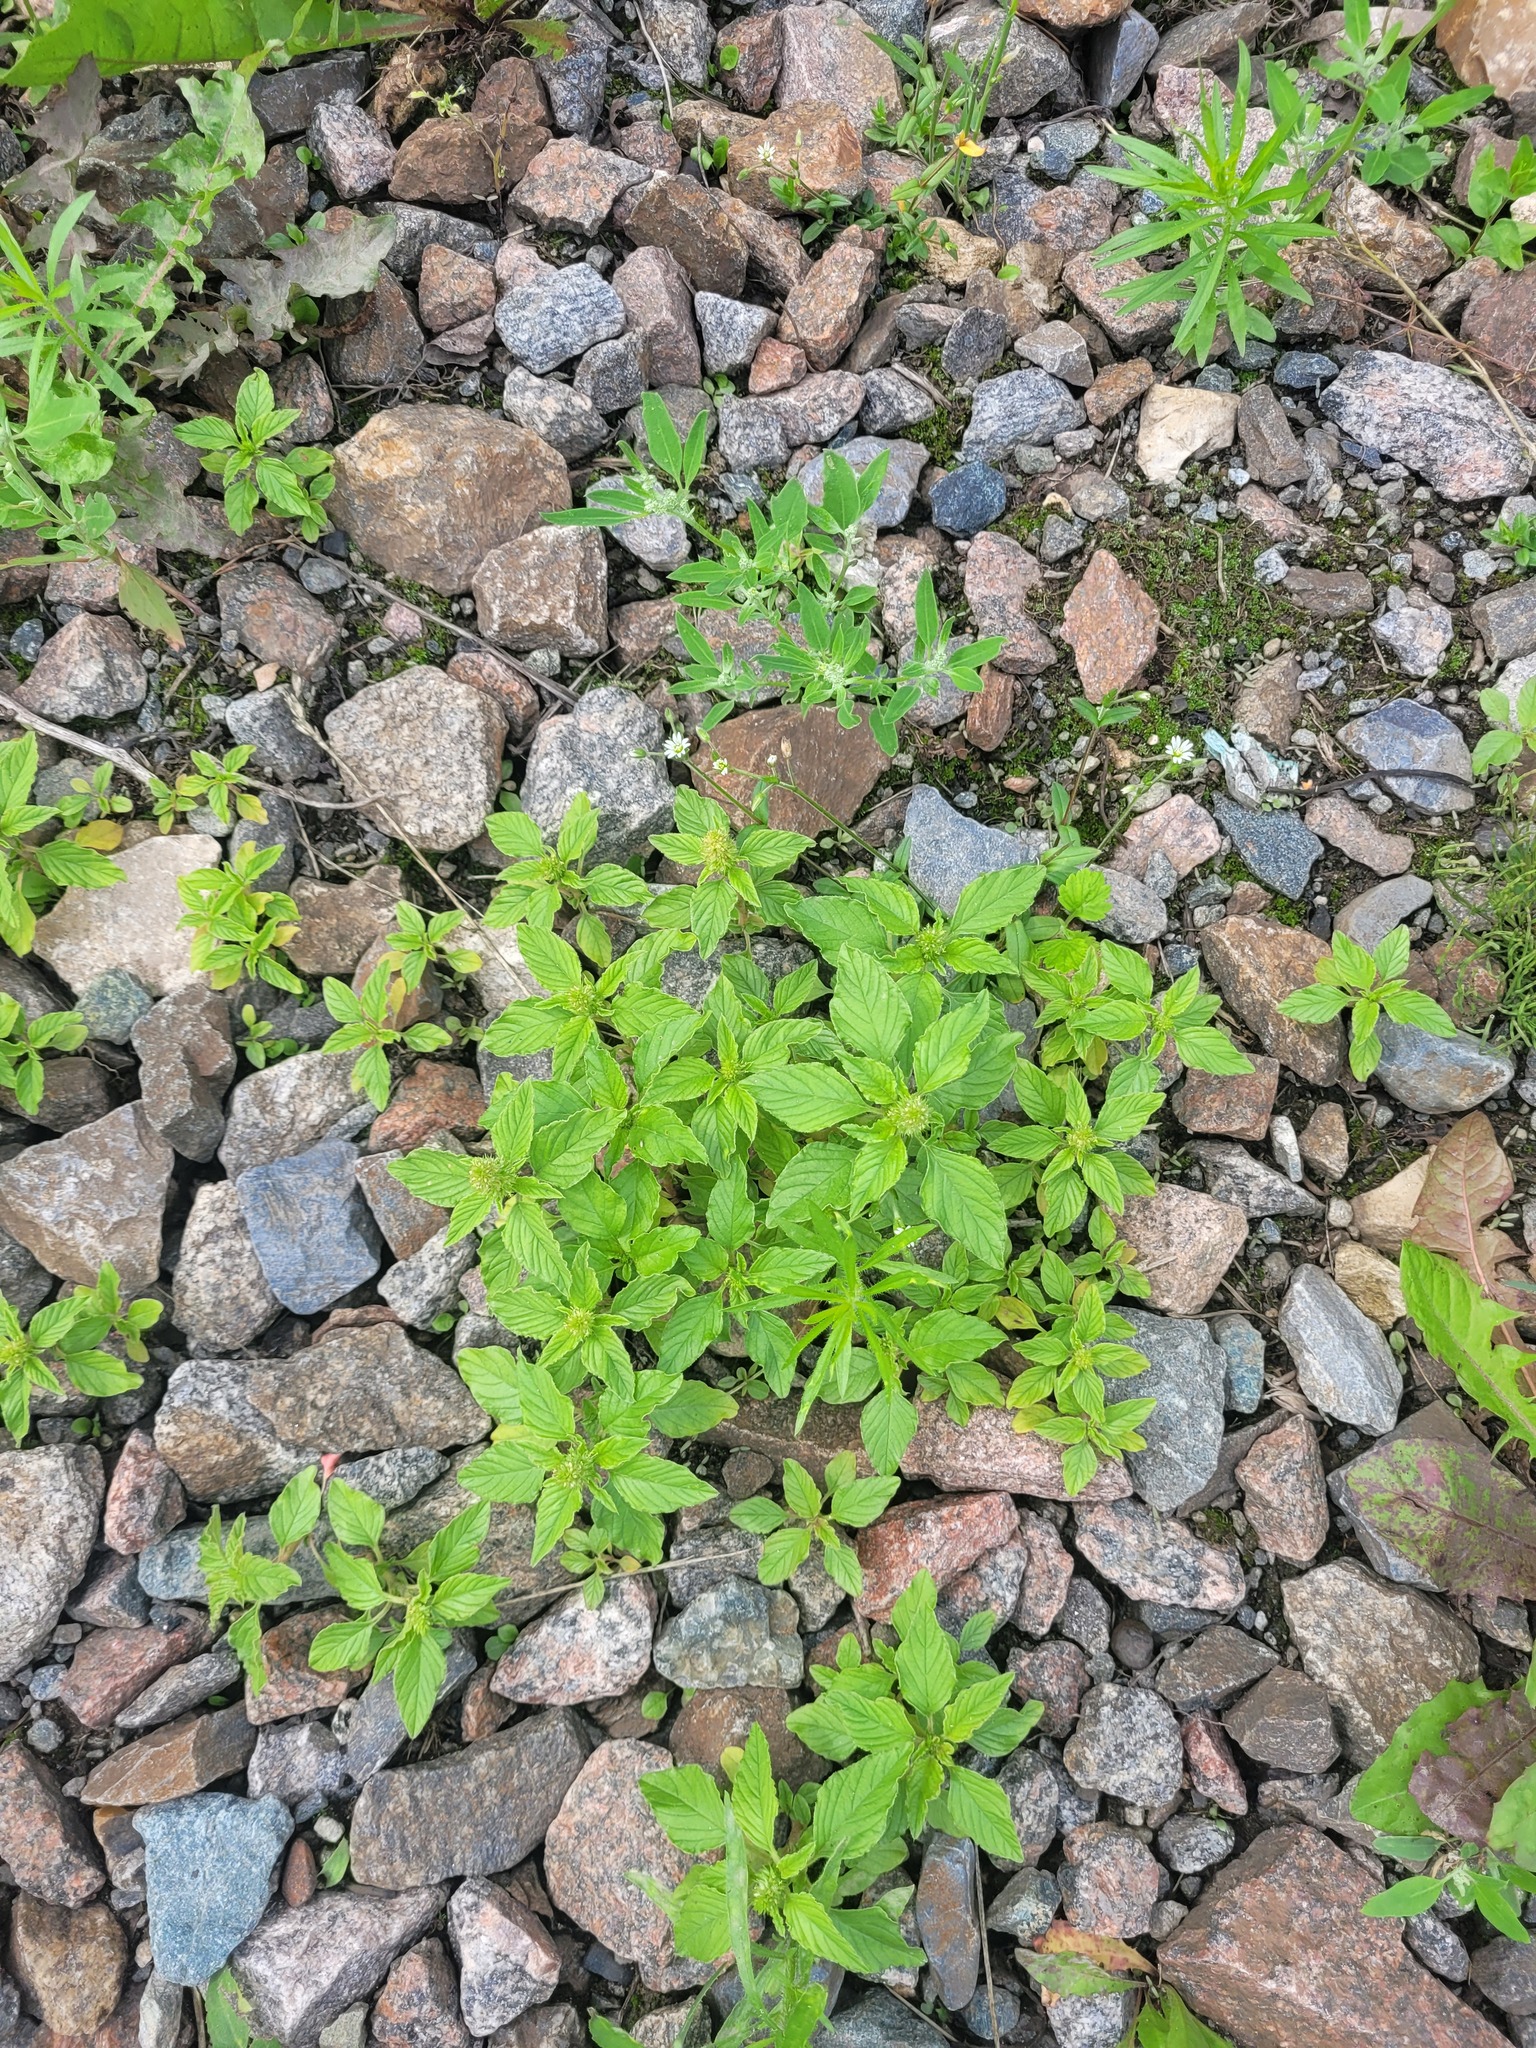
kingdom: Plantae
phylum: Tracheophyta
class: Magnoliopsida
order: Caryophyllales
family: Amaranthaceae
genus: Amaranthus
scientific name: Amaranthus retroflexus
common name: Redroot amaranth
